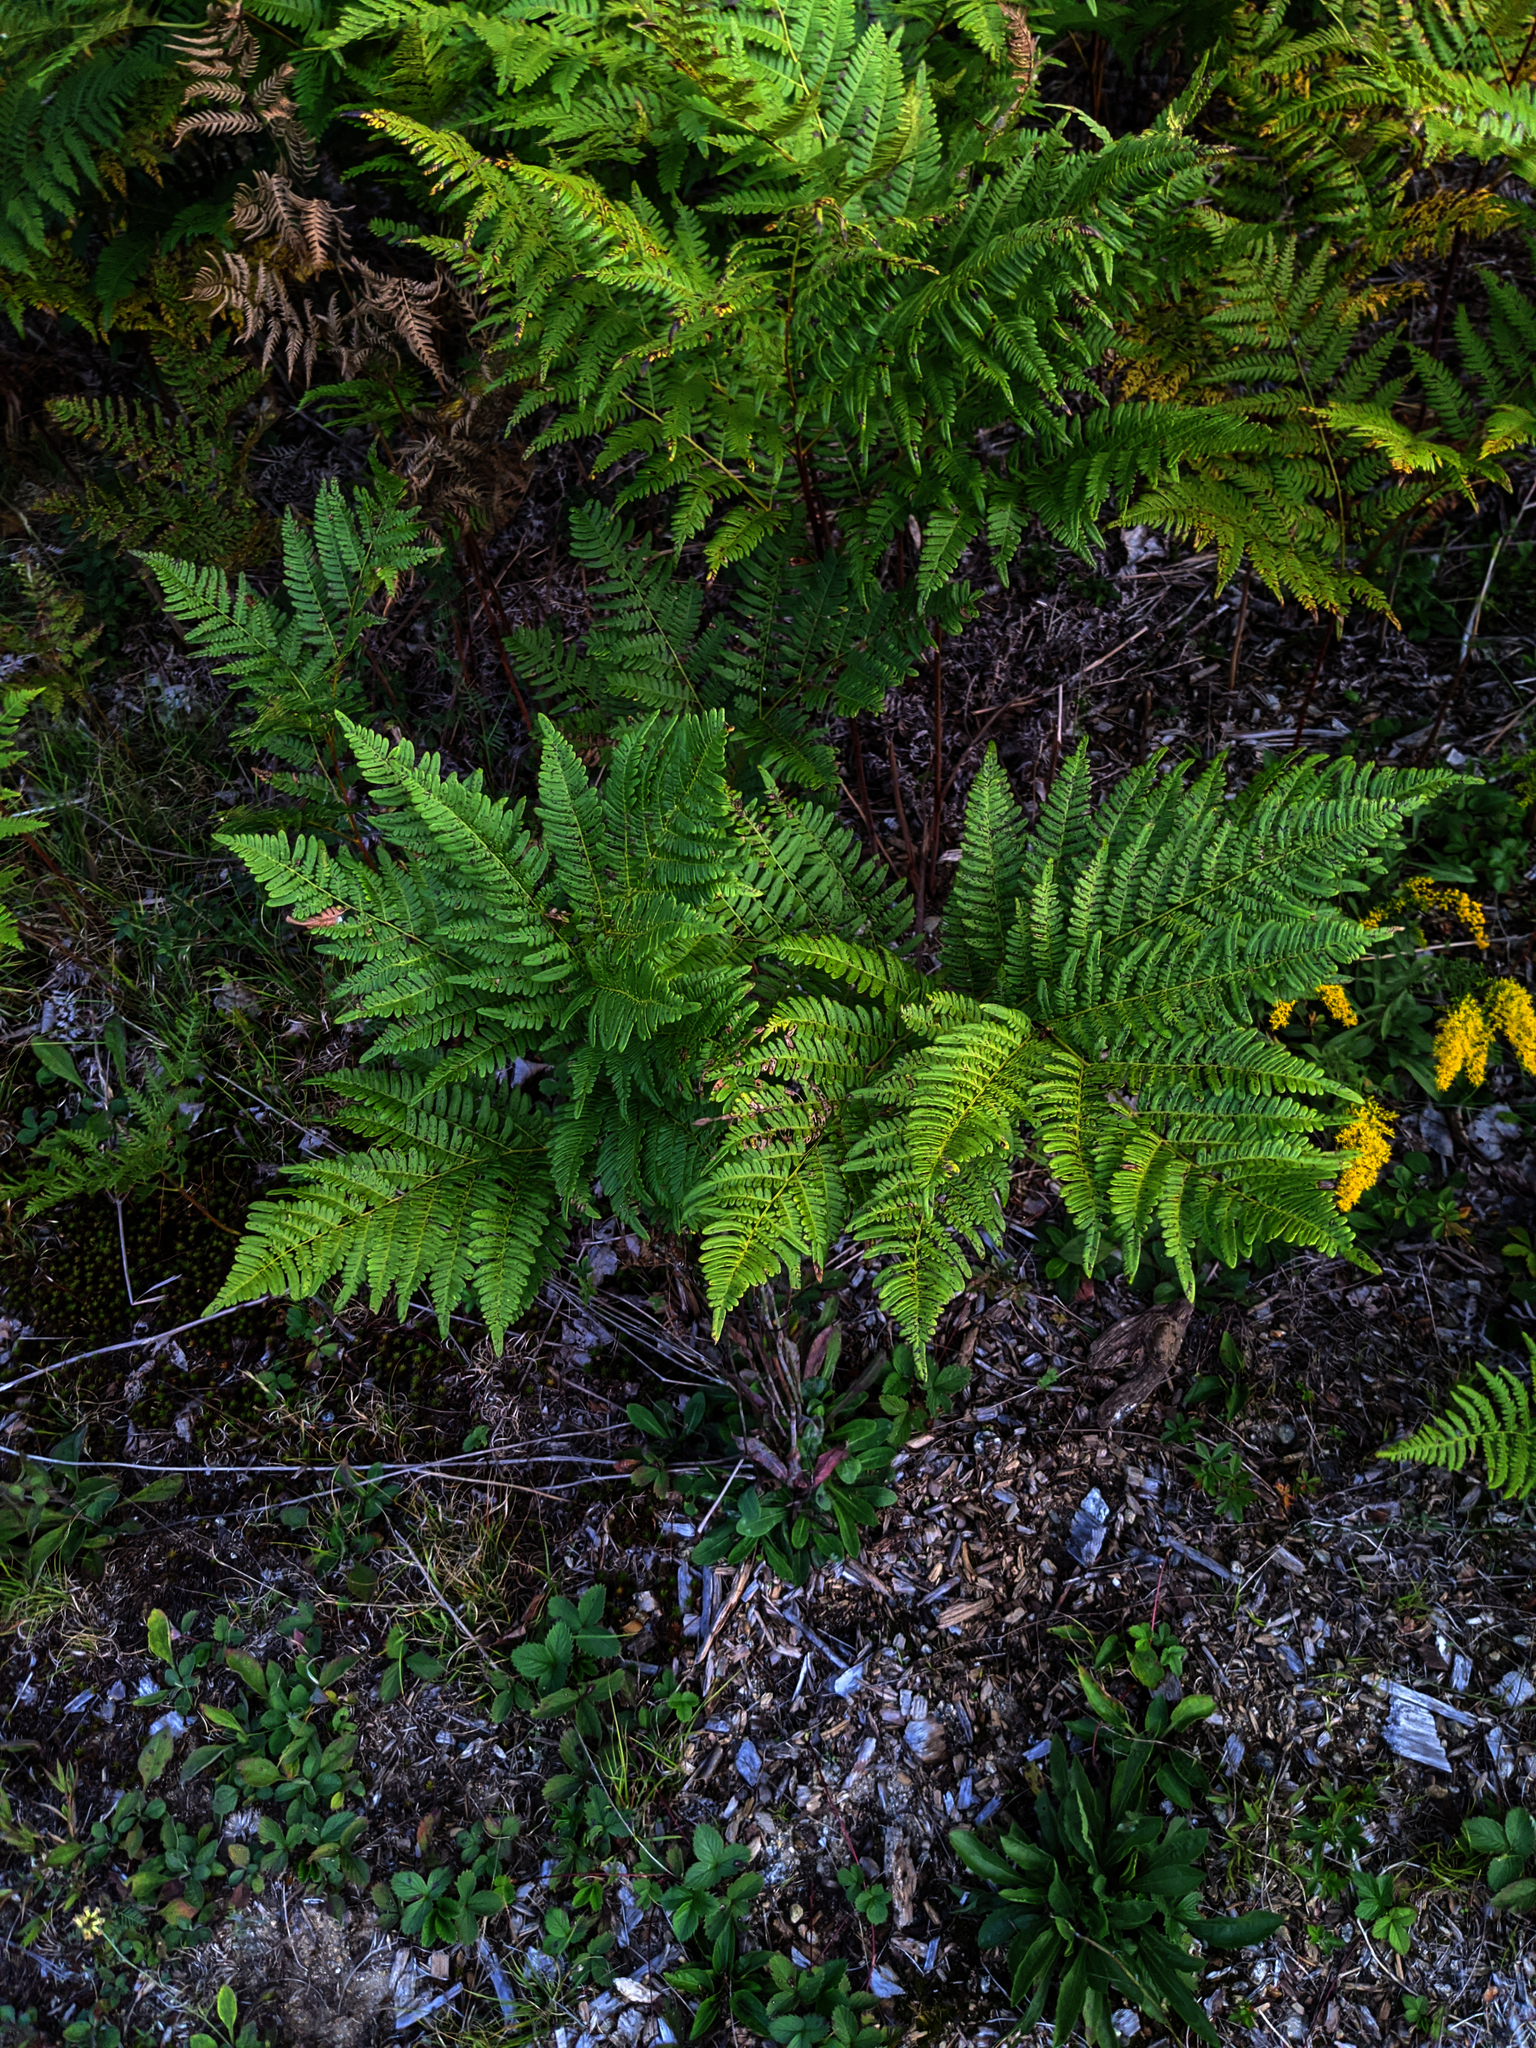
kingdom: Plantae
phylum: Tracheophyta
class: Polypodiopsida
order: Polypodiales
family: Dennstaedtiaceae
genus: Pteridium
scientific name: Pteridium aquilinum
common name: Bracken
